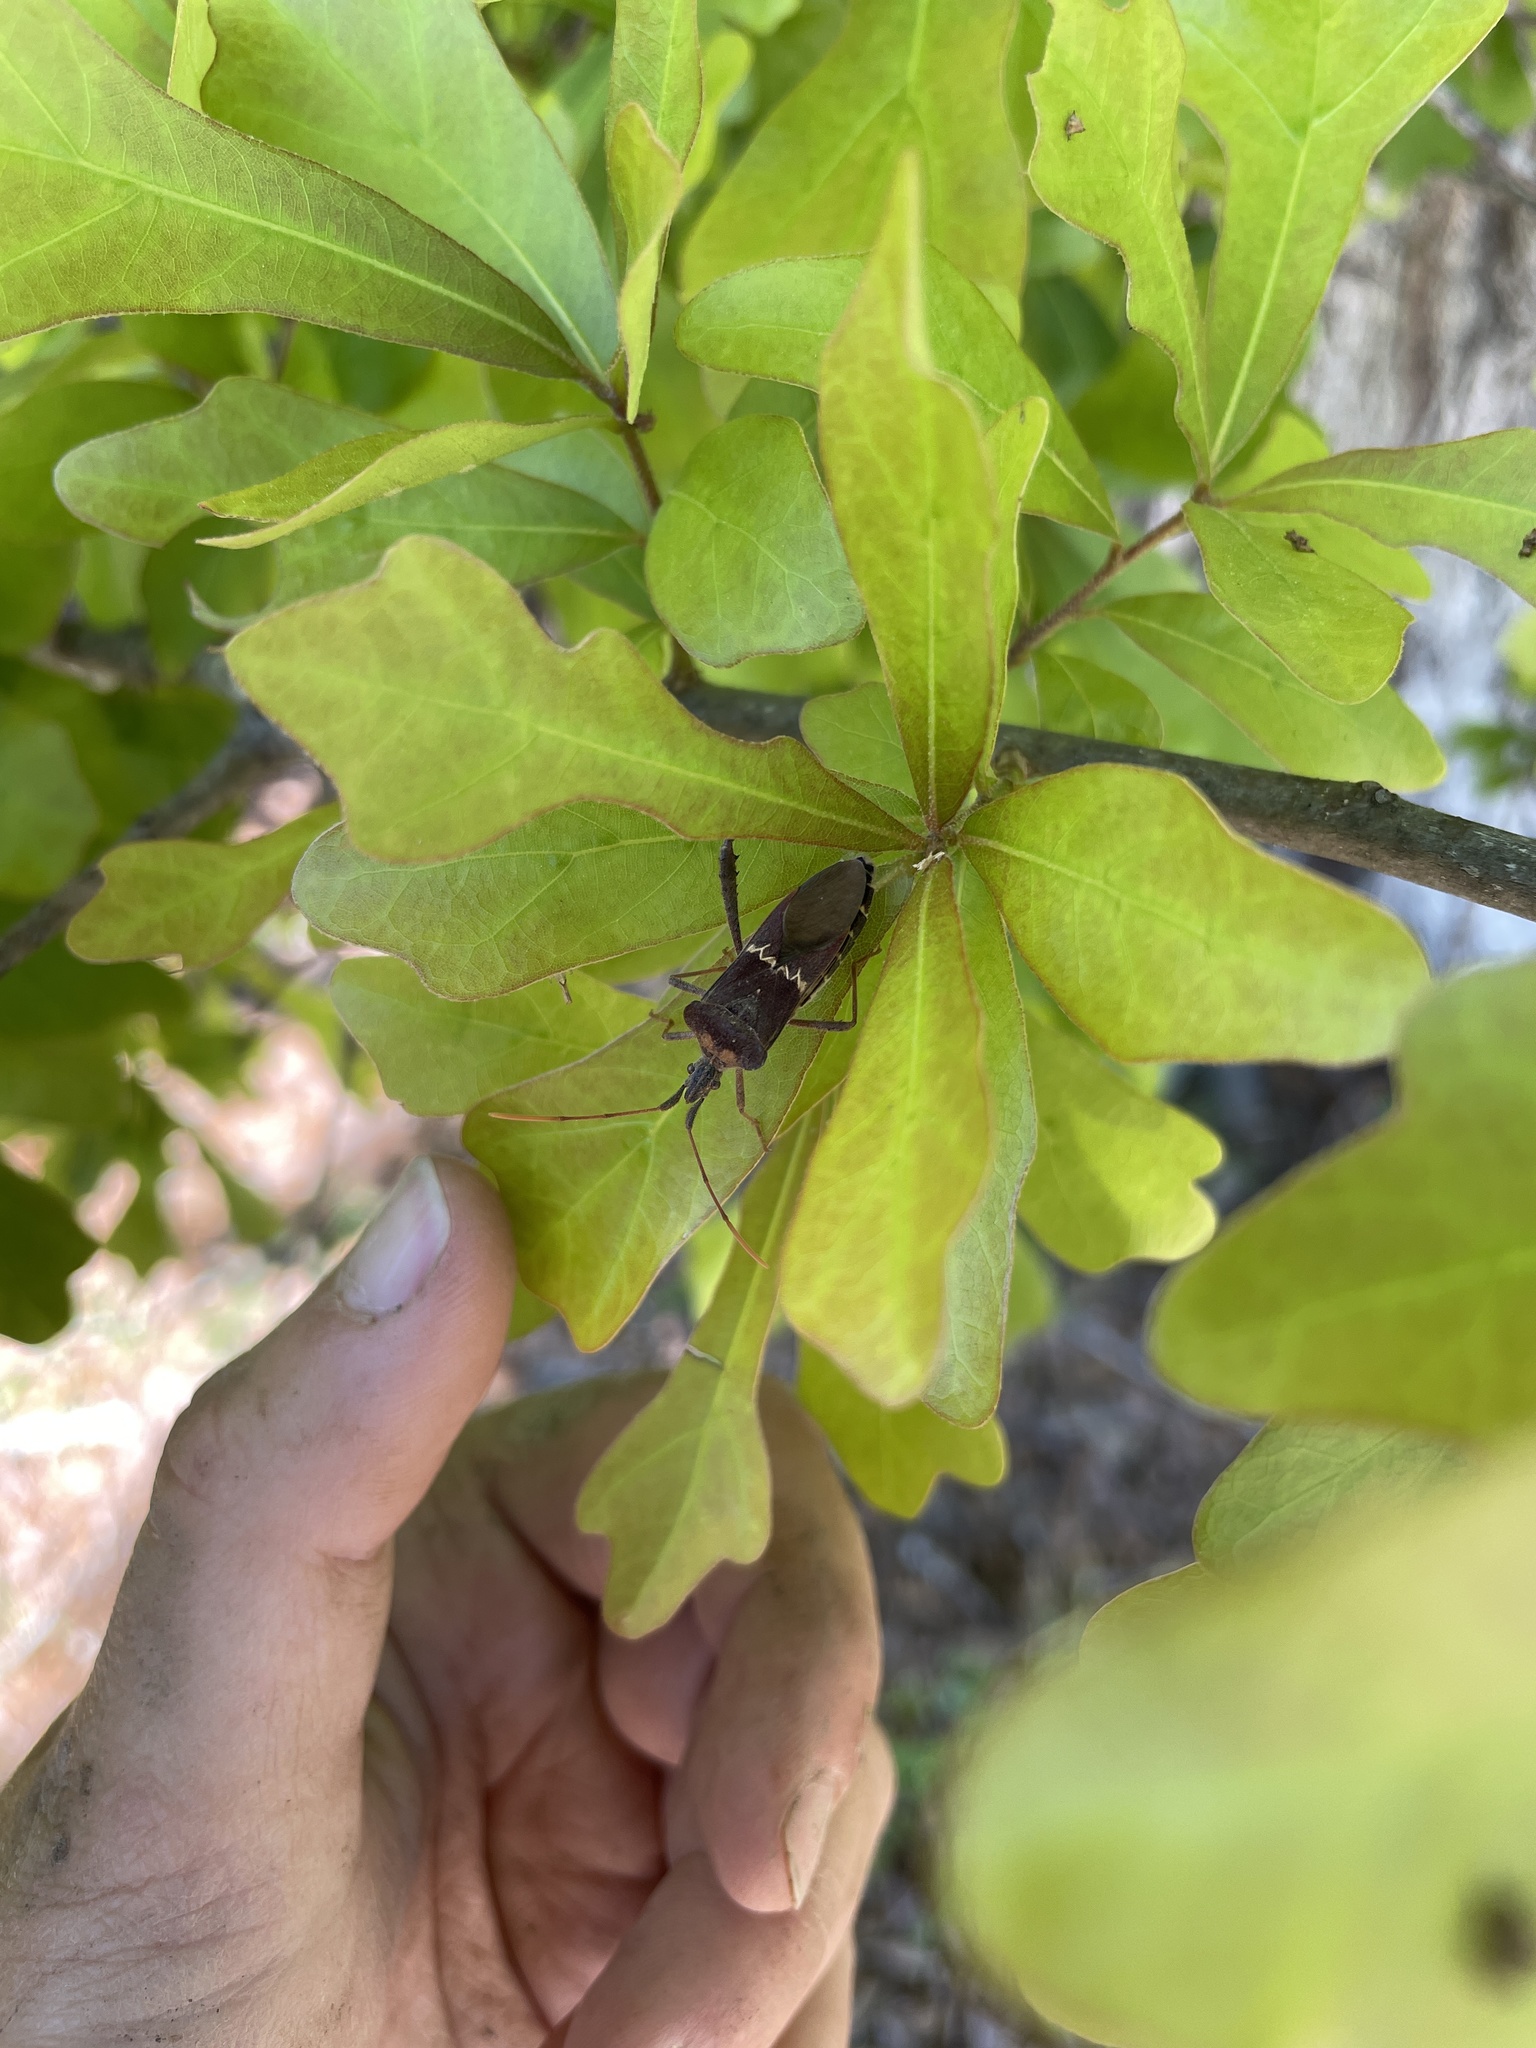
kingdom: Animalia
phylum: Arthropoda
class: Insecta
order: Hemiptera
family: Coreidae
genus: Leptoglossus
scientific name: Leptoglossus zonatus
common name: Large-legged bug
